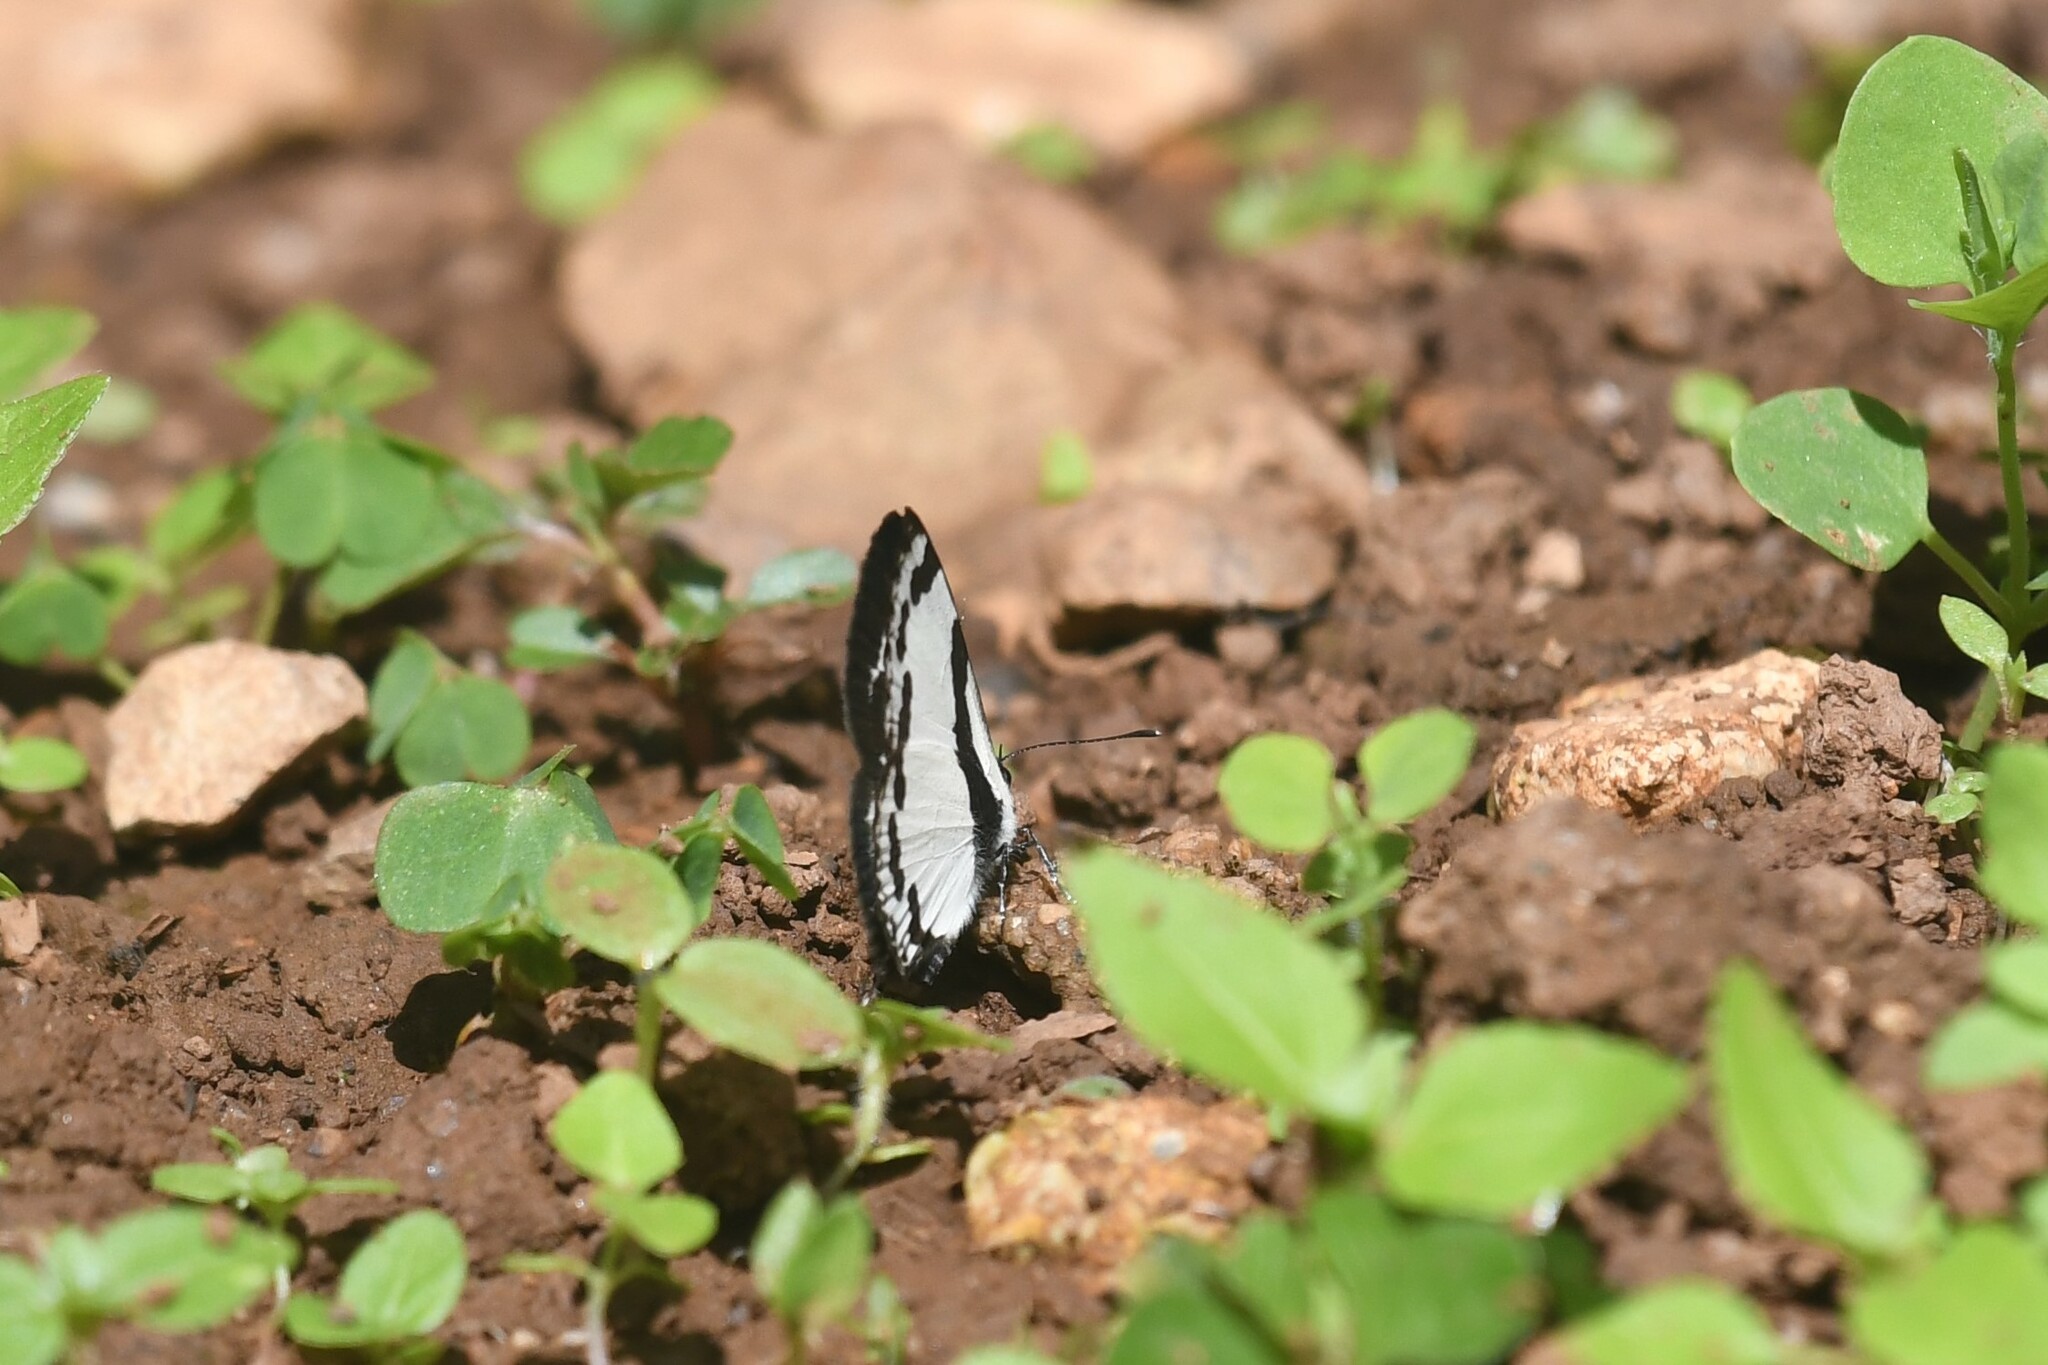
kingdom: Animalia
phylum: Arthropoda
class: Insecta
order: Lepidoptera
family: Lycaenidae
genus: Caleta
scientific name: Caleta roxus
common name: Straight pierrot
